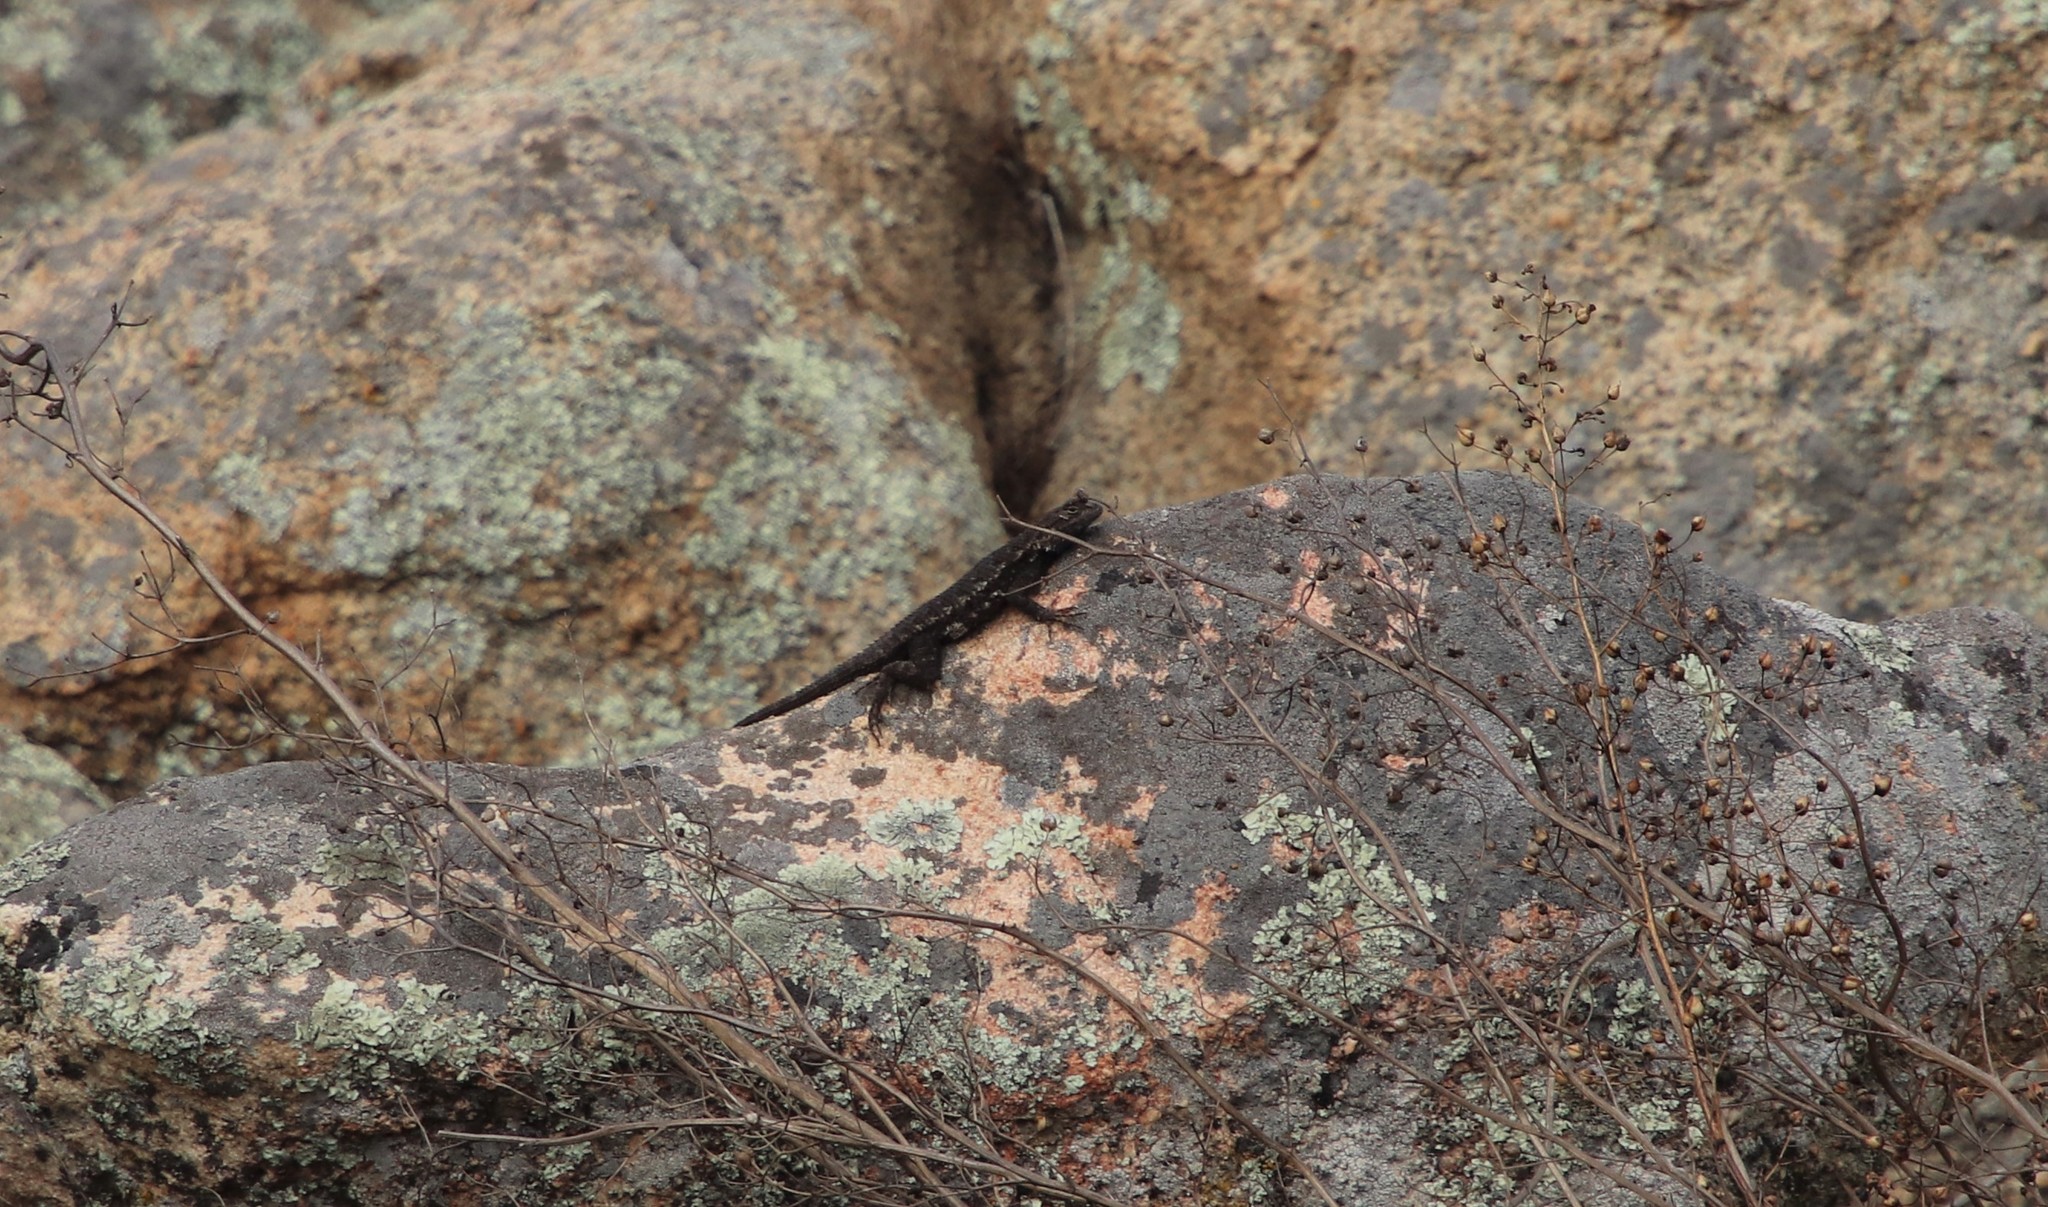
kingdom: Animalia
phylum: Chordata
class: Squamata
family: Phrynosomatidae
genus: Sceloporus
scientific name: Sceloporus occidentalis
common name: Western fence lizard
